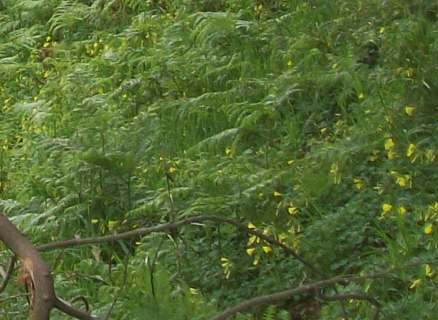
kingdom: Plantae
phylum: Tracheophyta
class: Polypodiopsida
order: Polypodiales
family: Dennstaedtiaceae
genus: Pteridium
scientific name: Pteridium aquilinum
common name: Bracken
